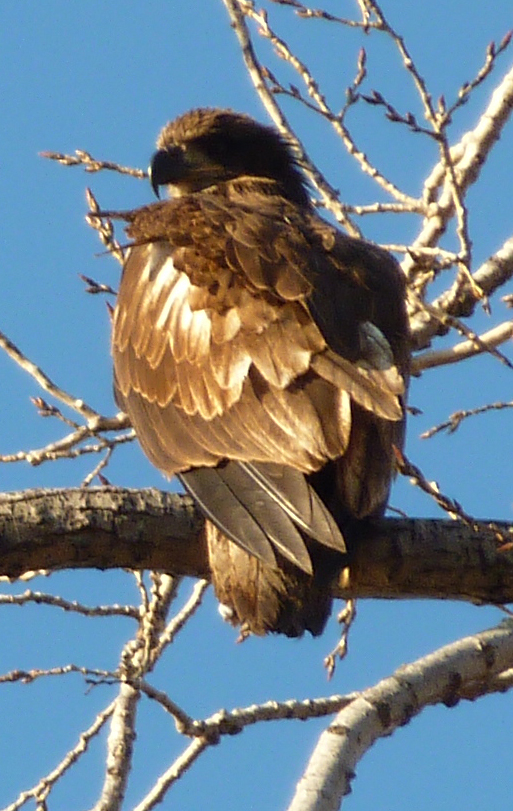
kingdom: Animalia
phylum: Chordata
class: Aves
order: Accipitriformes
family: Accipitridae
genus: Haliaeetus
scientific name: Haliaeetus leucocephalus
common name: Bald eagle
